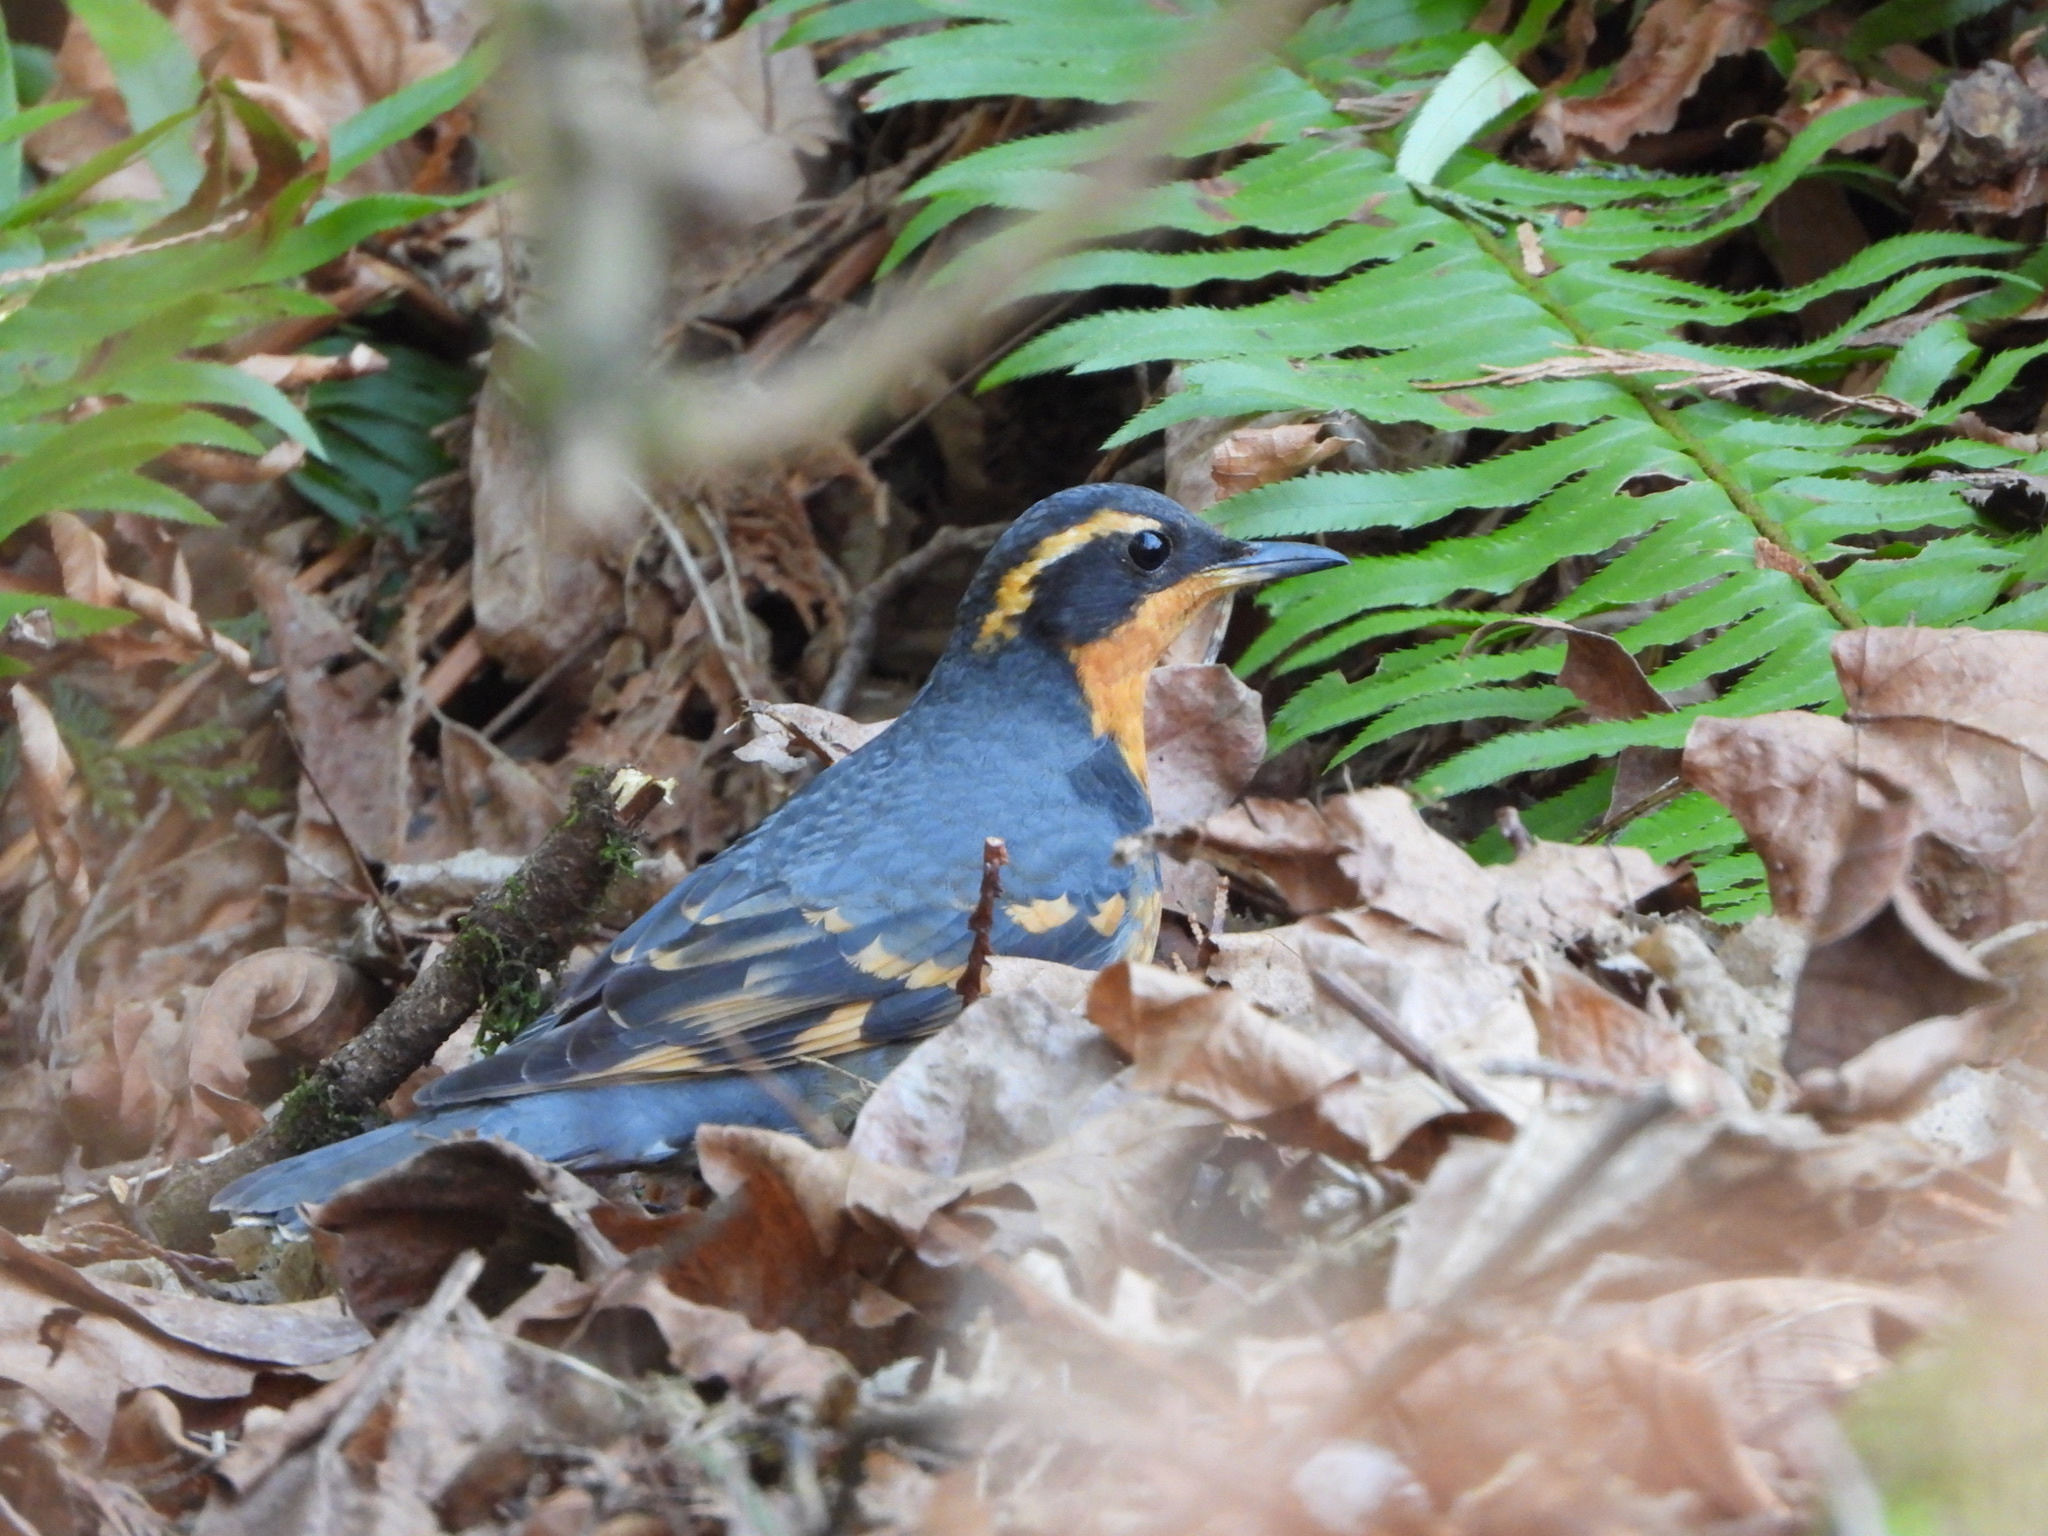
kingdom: Animalia
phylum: Chordata
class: Aves
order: Passeriformes
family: Turdidae
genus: Ixoreus
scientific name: Ixoreus naevius
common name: Varied thrush
